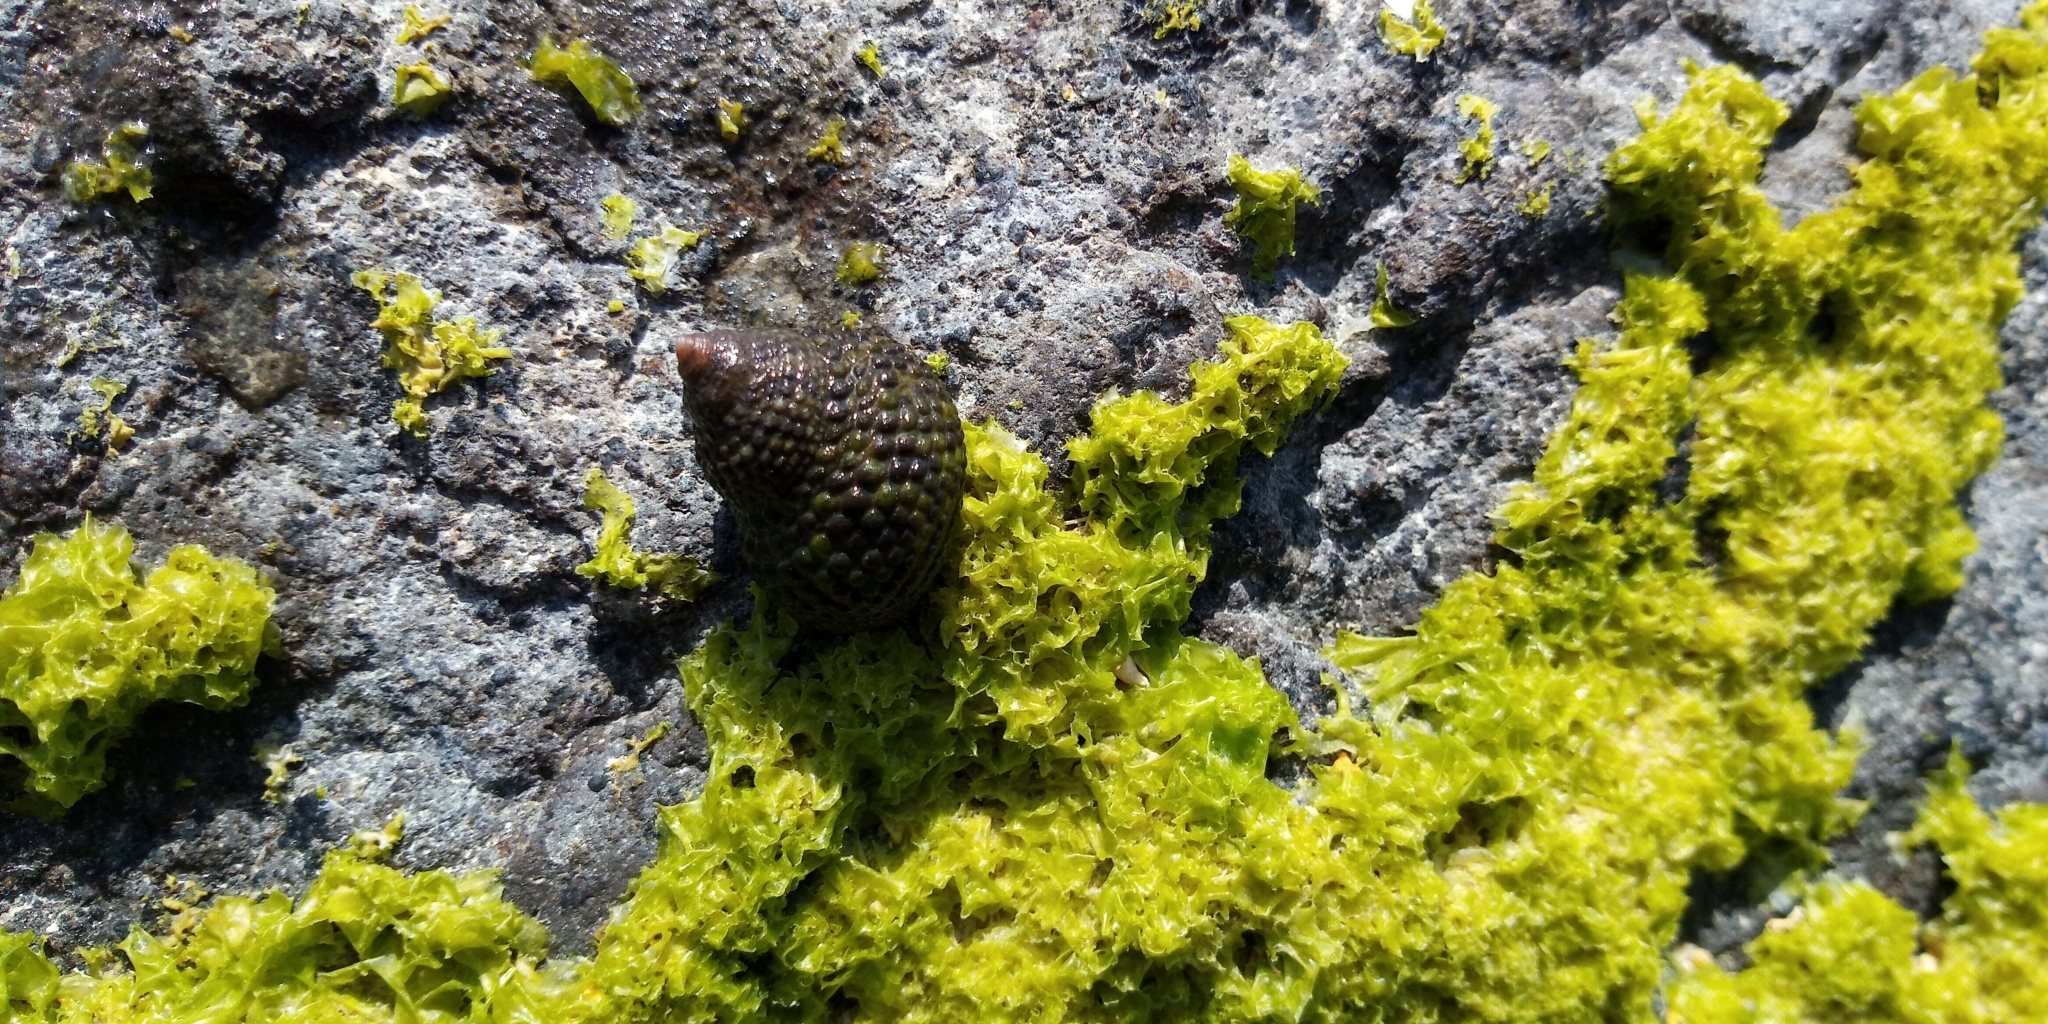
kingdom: Animalia
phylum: Mollusca
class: Gastropoda
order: Trochida
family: Trochidae
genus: Monodonta
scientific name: Monodonta labio
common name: Labio
